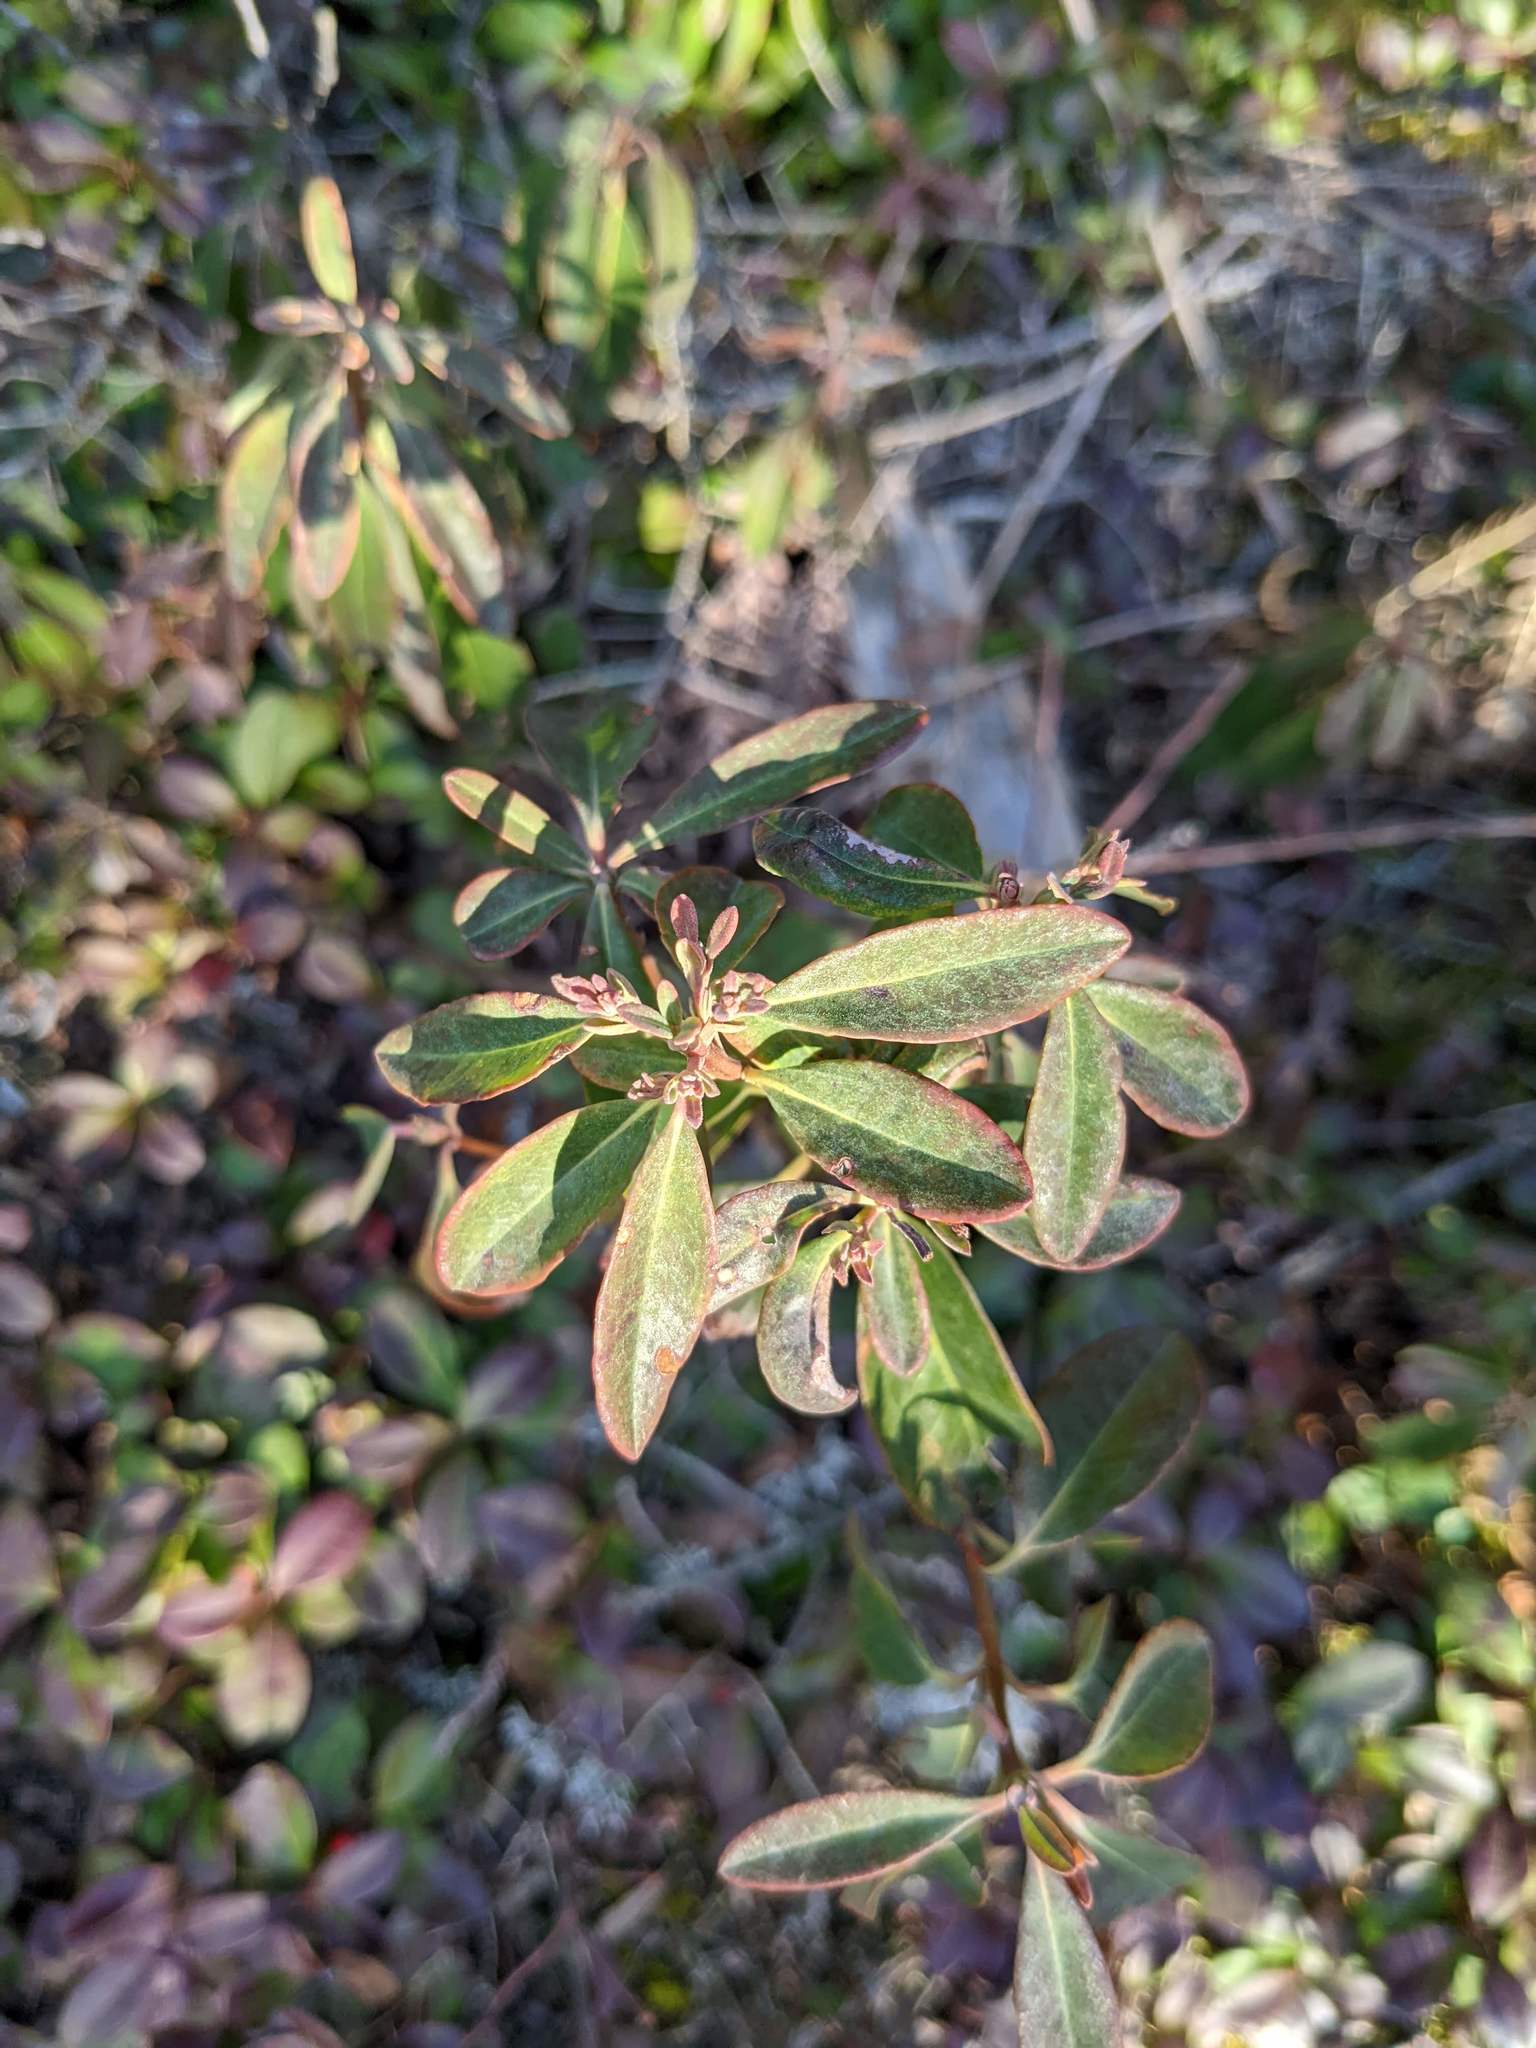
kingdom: Plantae
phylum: Tracheophyta
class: Magnoliopsida
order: Ericales
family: Ericaceae
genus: Kalmia
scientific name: Kalmia angustifolia
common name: Sheep-laurel
